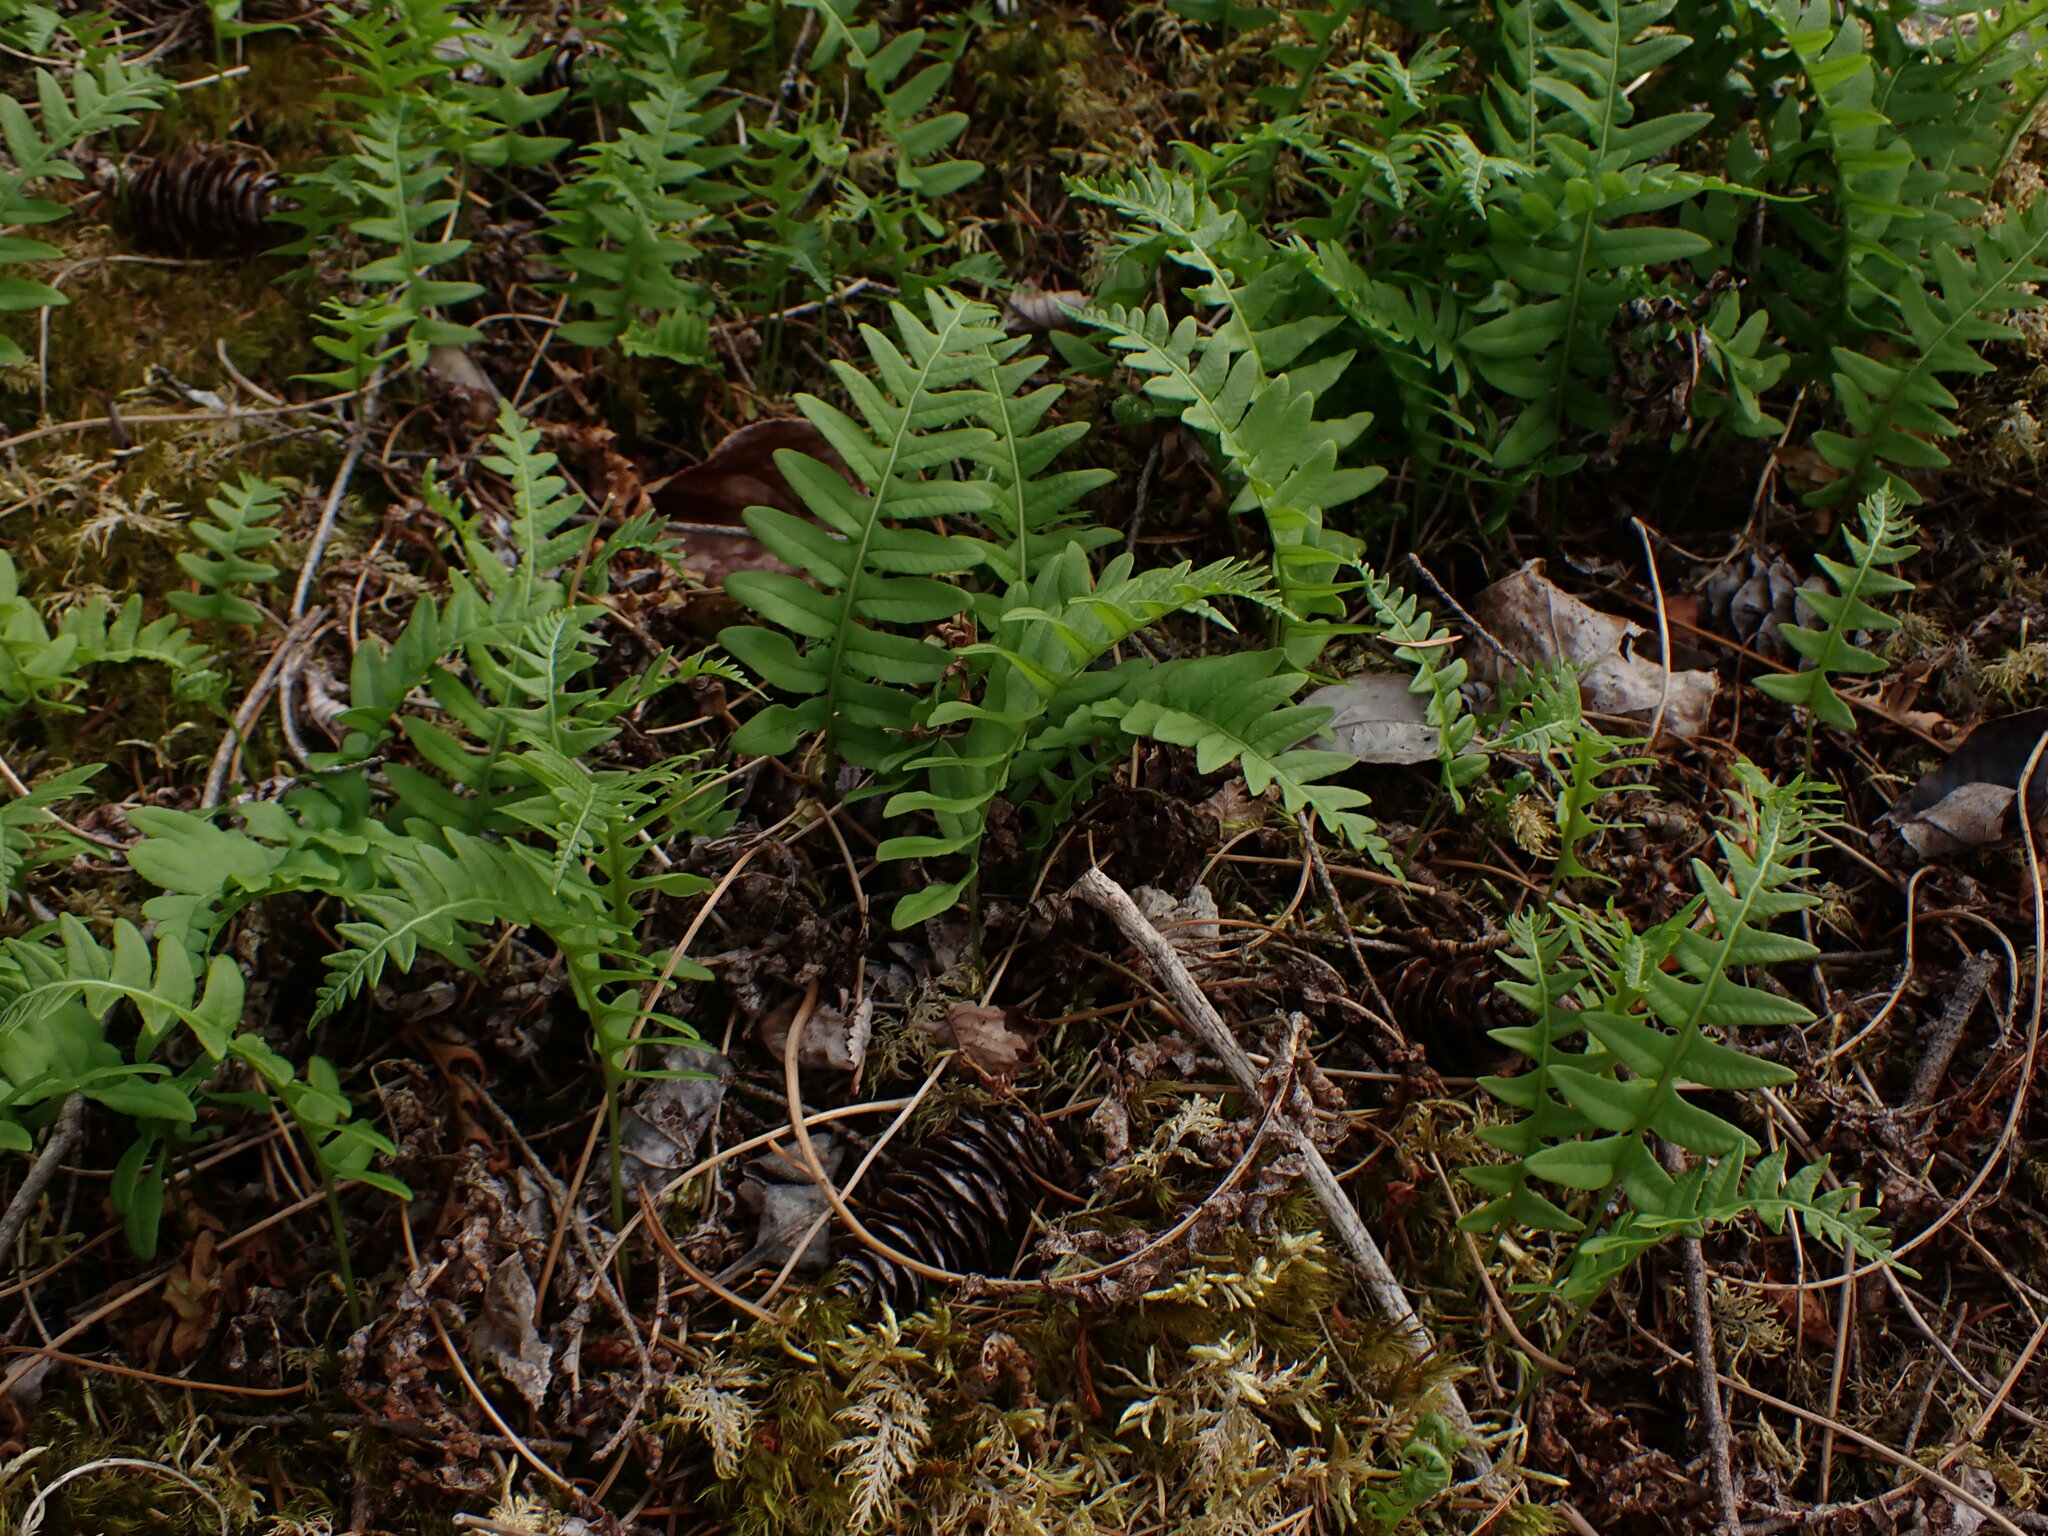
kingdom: Plantae
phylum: Tracheophyta
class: Polypodiopsida
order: Polypodiales
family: Polypodiaceae
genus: Polypodium
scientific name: Polypodium glycyrrhiza
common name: Licorice fern
